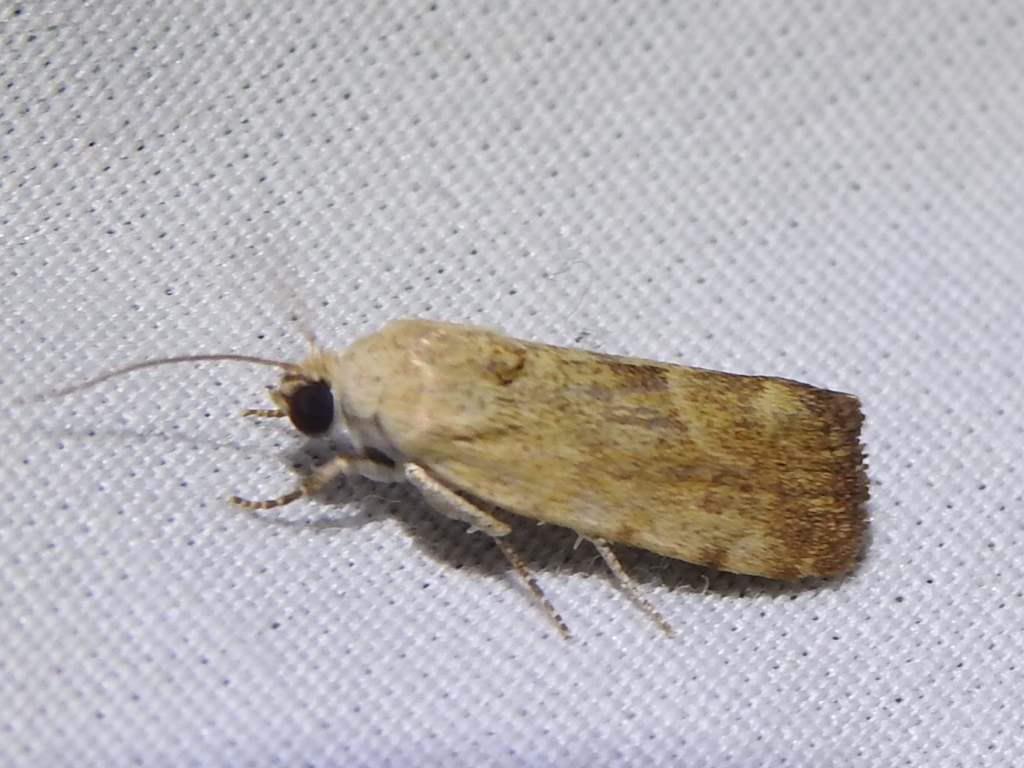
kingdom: Animalia
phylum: Arthropoda
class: Insecta
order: Lepidoptera
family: Noctuidae
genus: Acontia
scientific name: Acontia fasciatella
